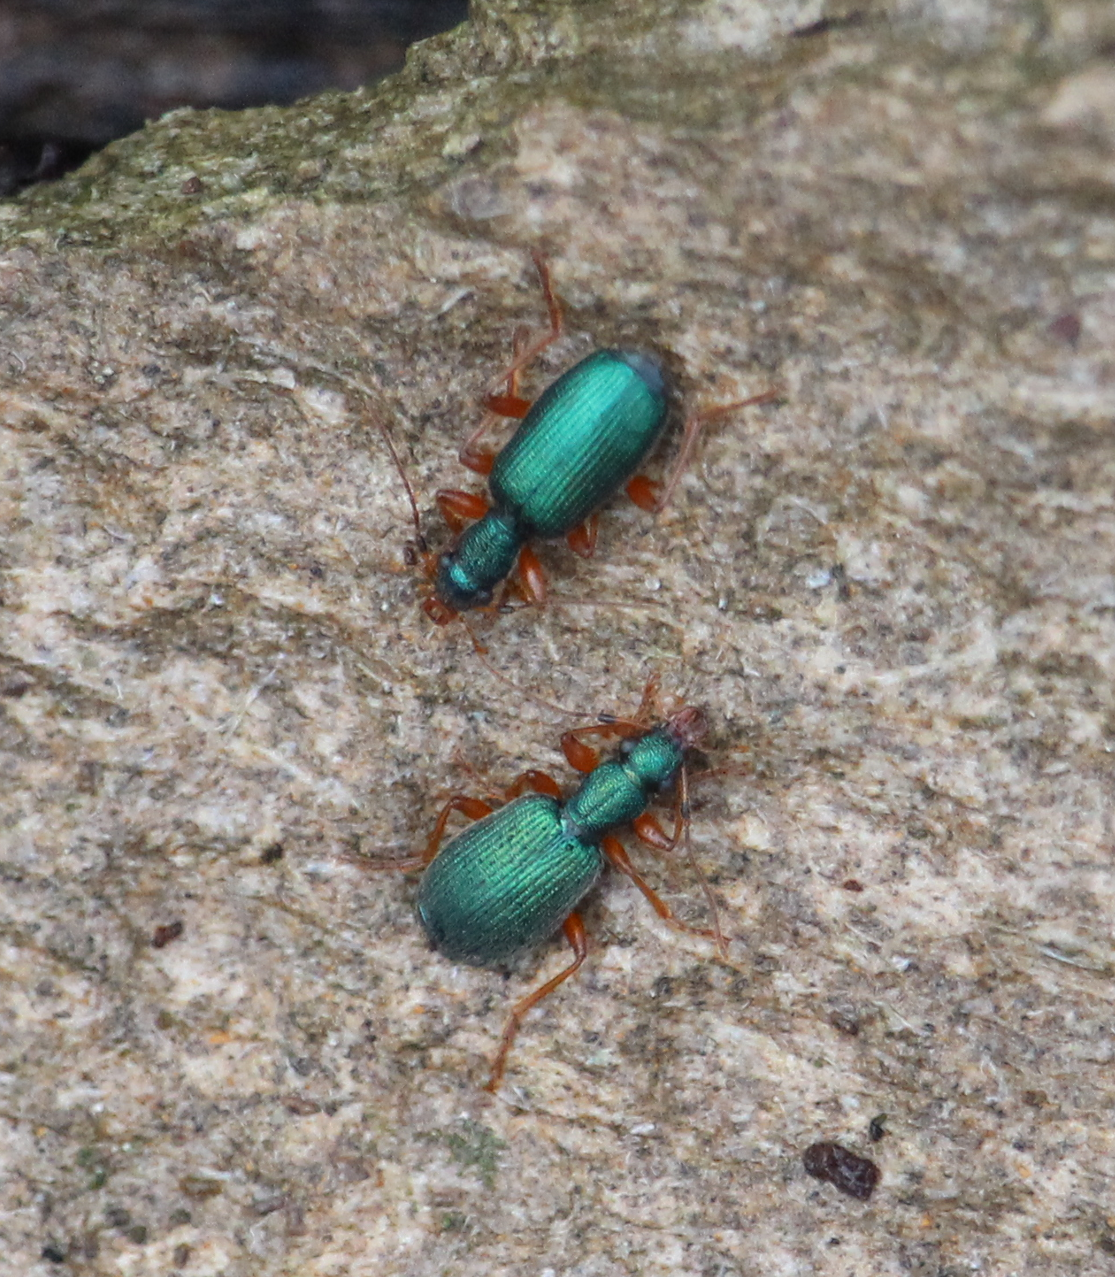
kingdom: Animalia
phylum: Arthropoda
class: Insecta
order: Coleoptera
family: Carabidae
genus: Drypta
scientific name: Drypta dentata
